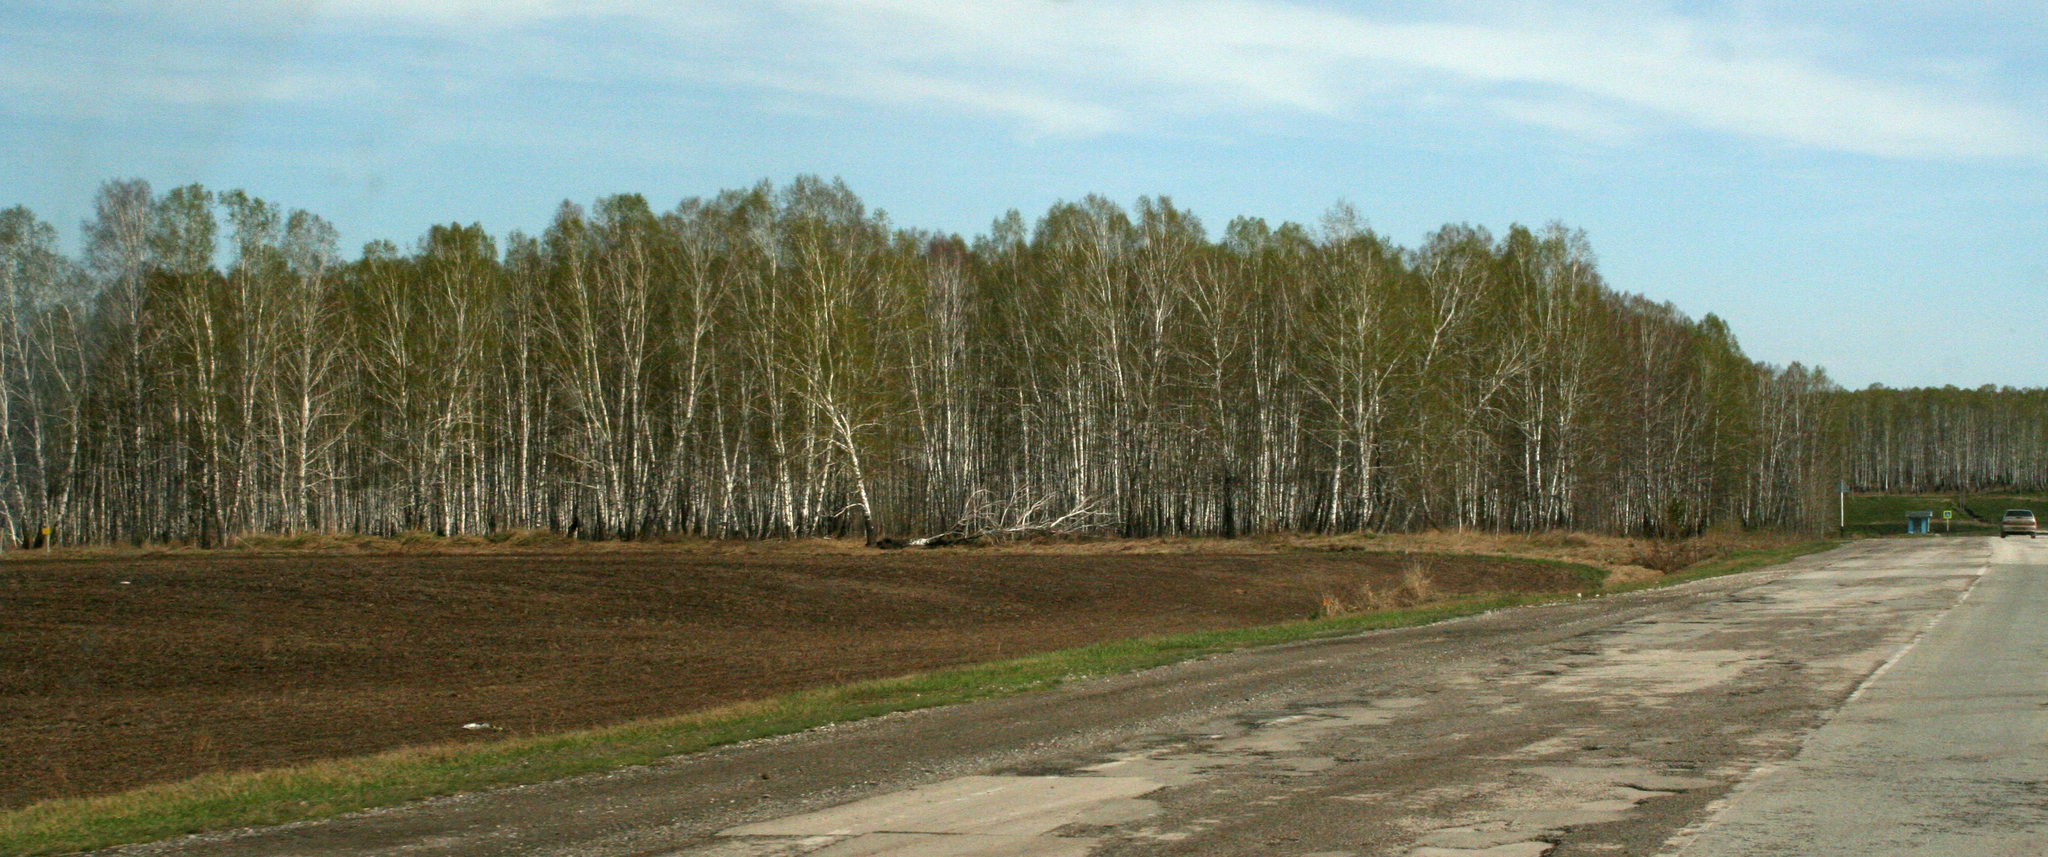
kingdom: Plantae
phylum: Tracheophyta
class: Magnoliopsida
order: Fagales
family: Betulaceae
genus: Betula
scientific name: Betula pendula
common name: Silver birch
